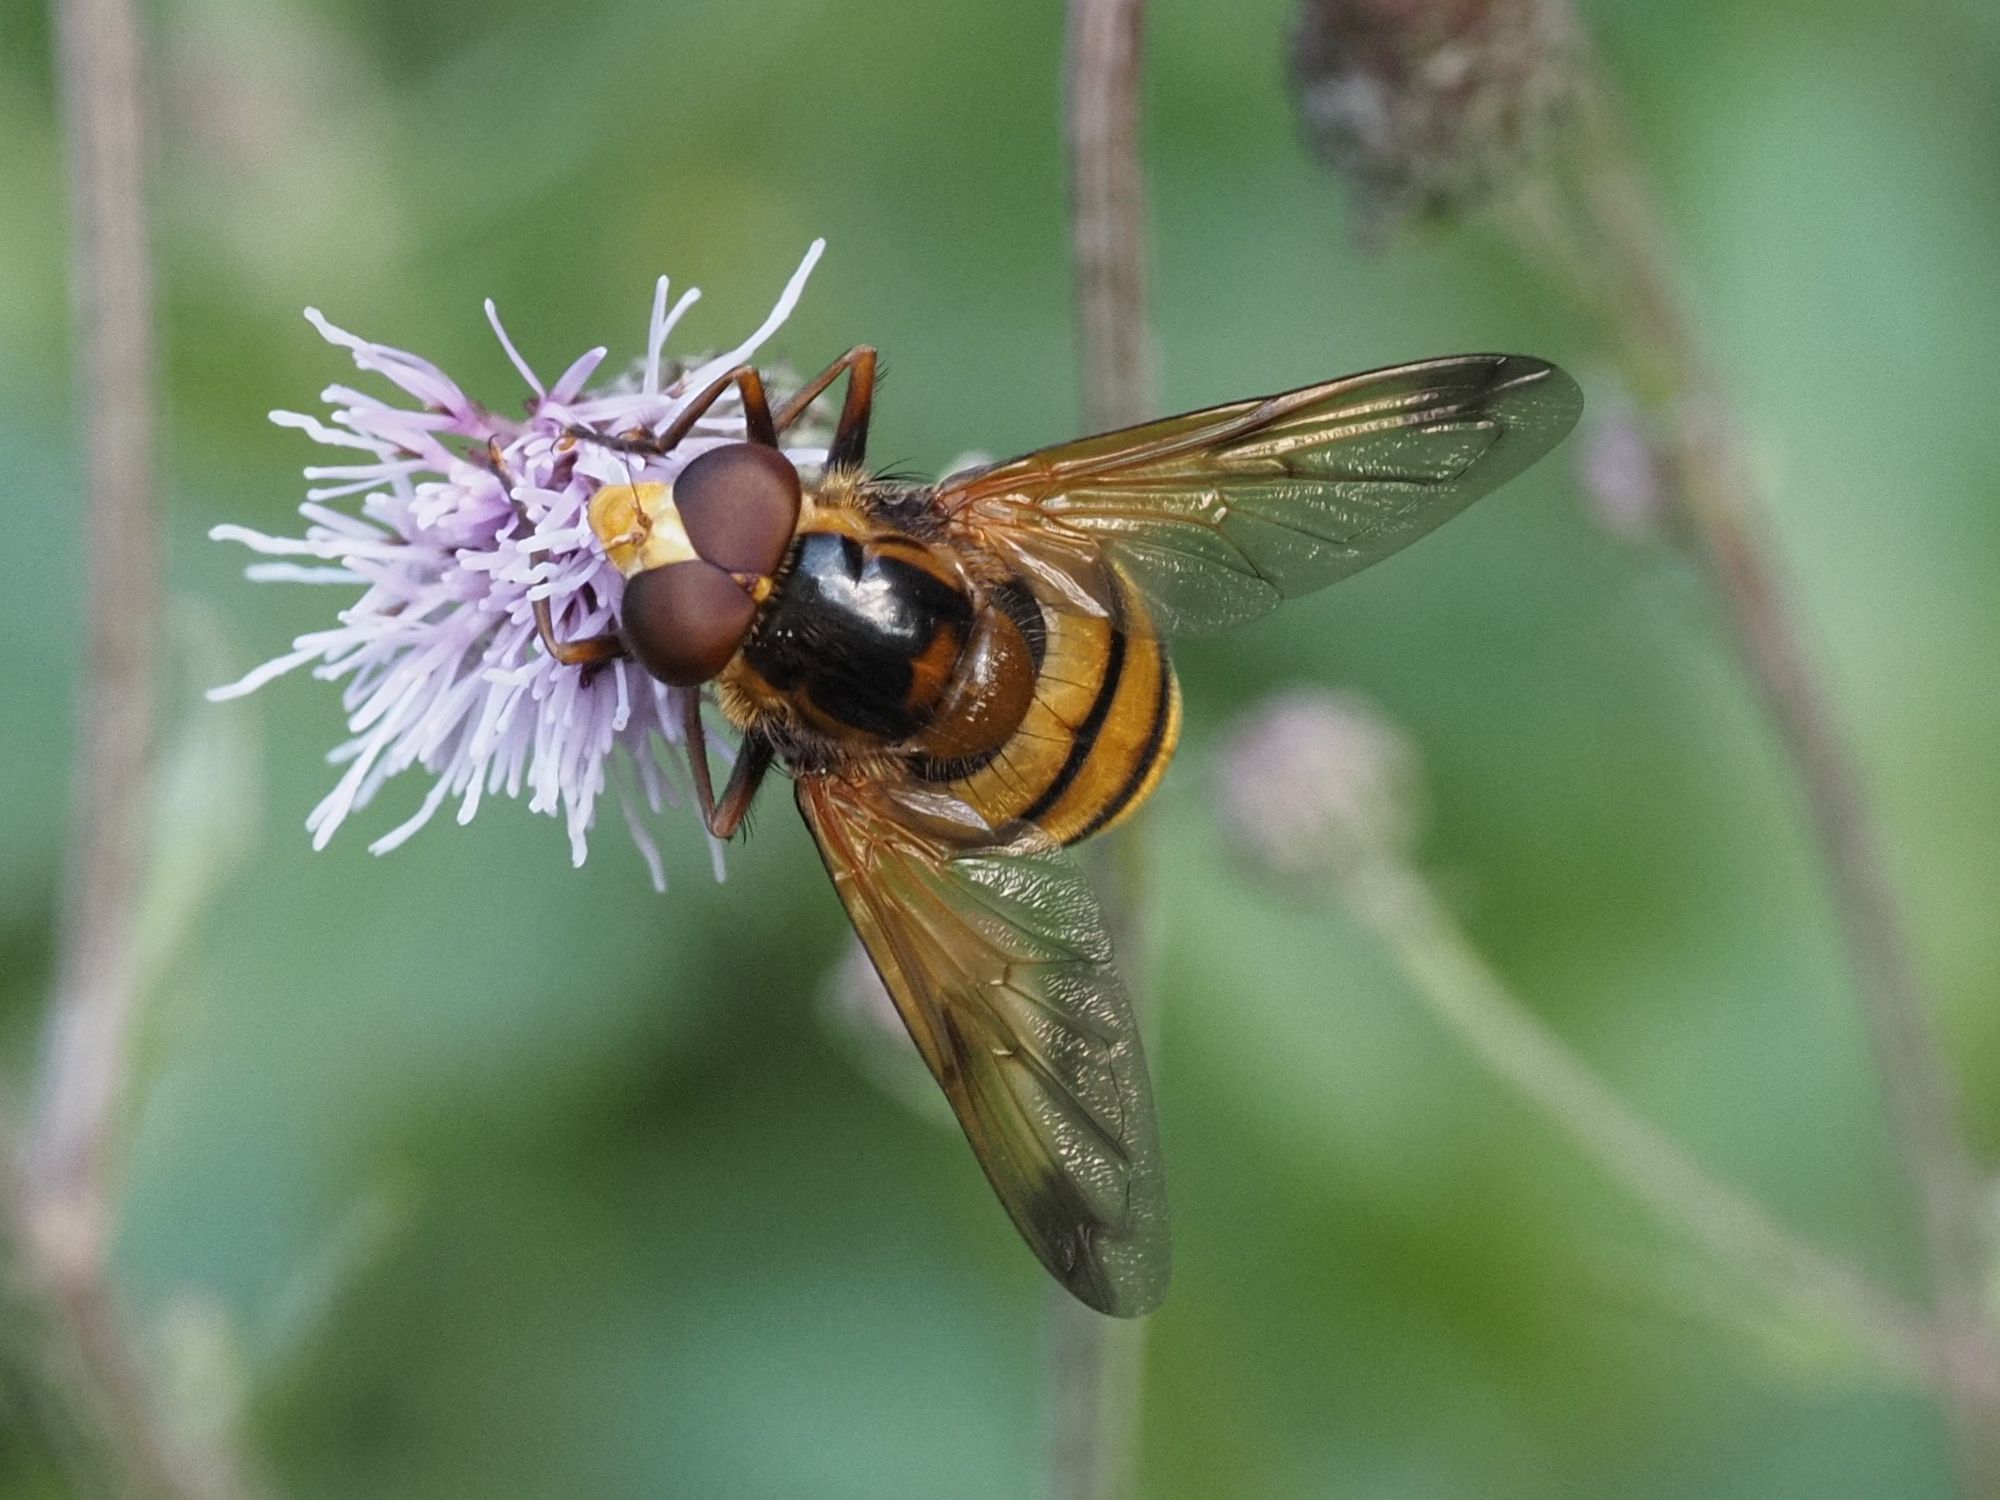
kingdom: Animalia
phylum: Arthropoda
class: Insecta
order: Diptera
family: Syrphidae
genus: Volucella
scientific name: Volucella inanis
